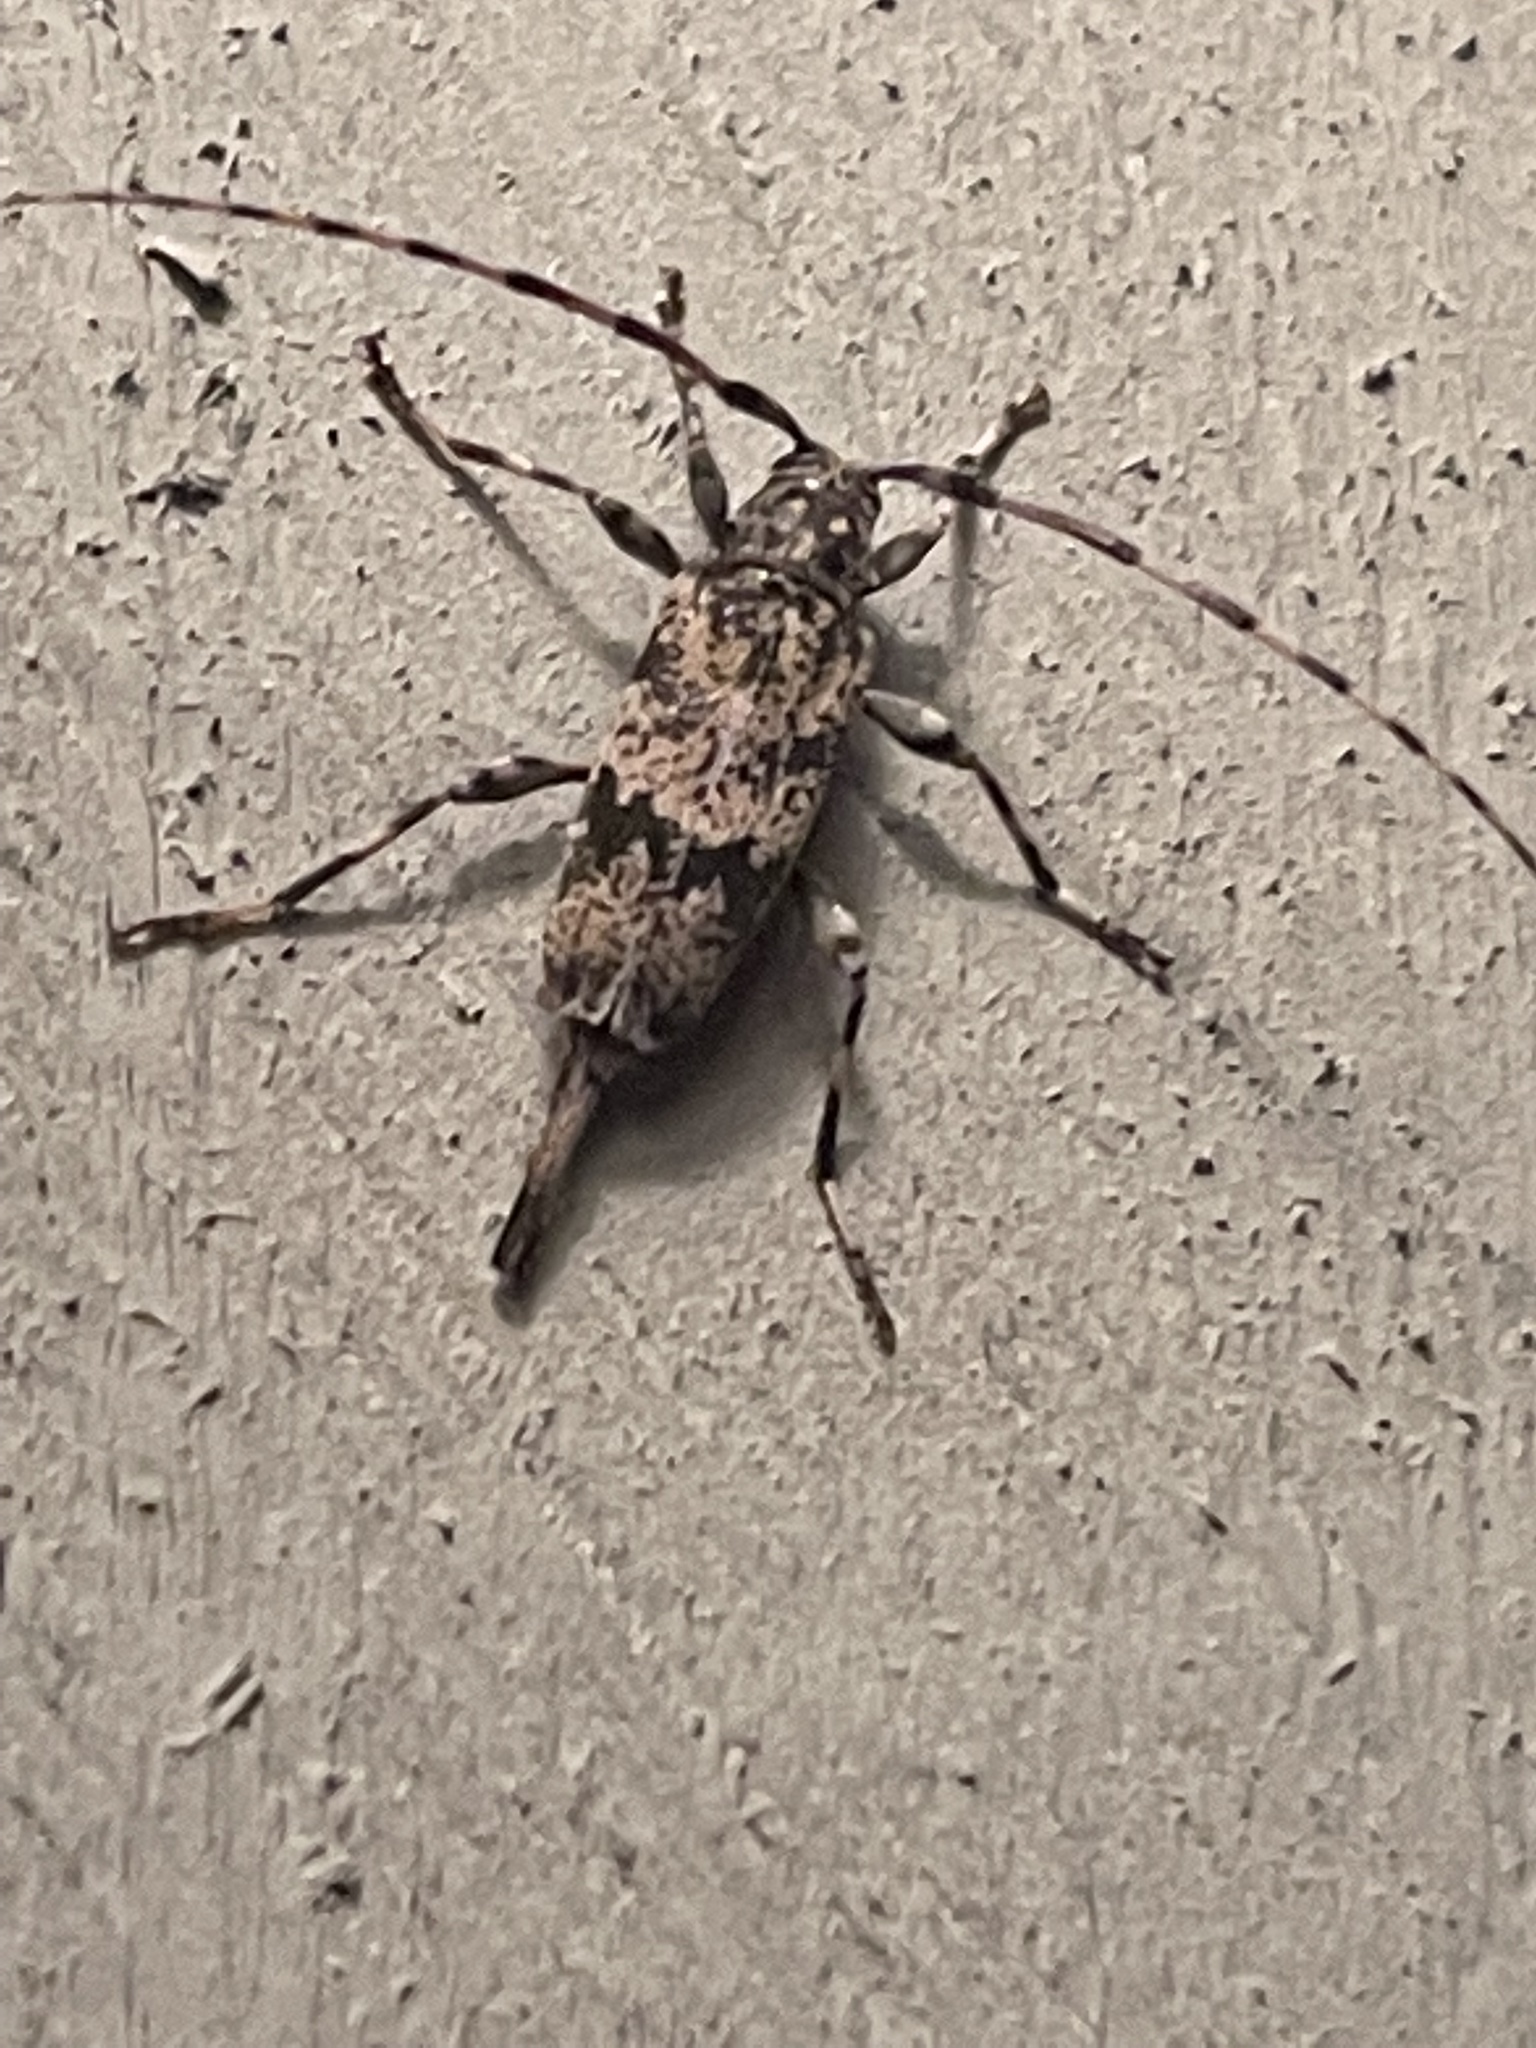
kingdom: Animalia
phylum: Arthropoda
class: Insecta
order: Coleoptera
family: Cerambycidae
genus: Graphisurus
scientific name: Graphisurus fasciatus
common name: Banded graphisurus
